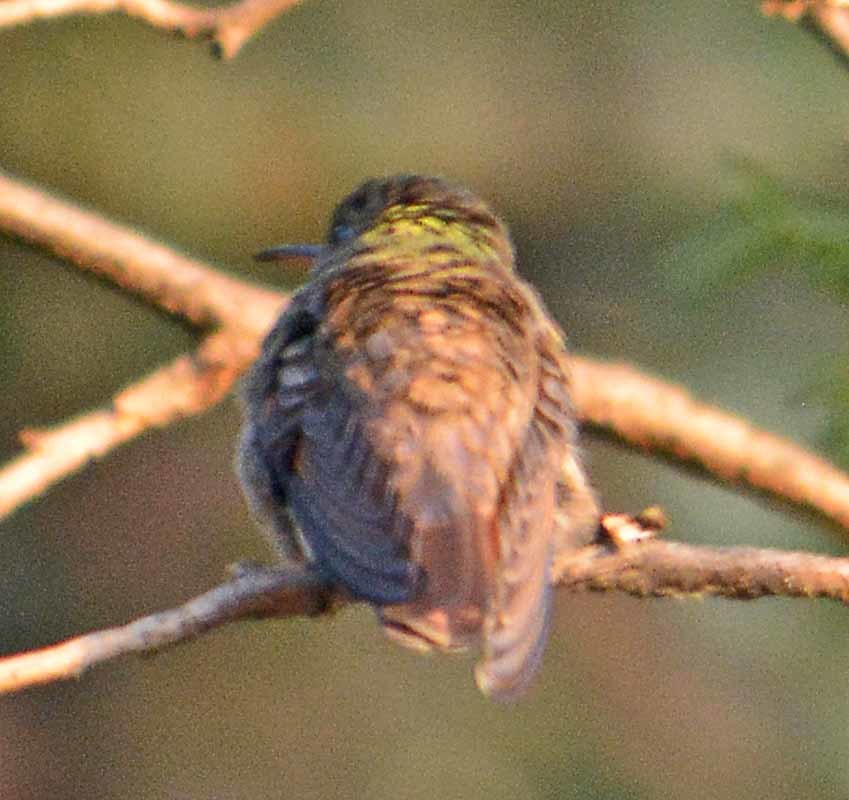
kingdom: Animalia
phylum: Chordata
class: Aves
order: Apodiformes
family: Trochilidae
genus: Saucerottia
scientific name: Saucerottia beryllina
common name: Berylline hummingbird
